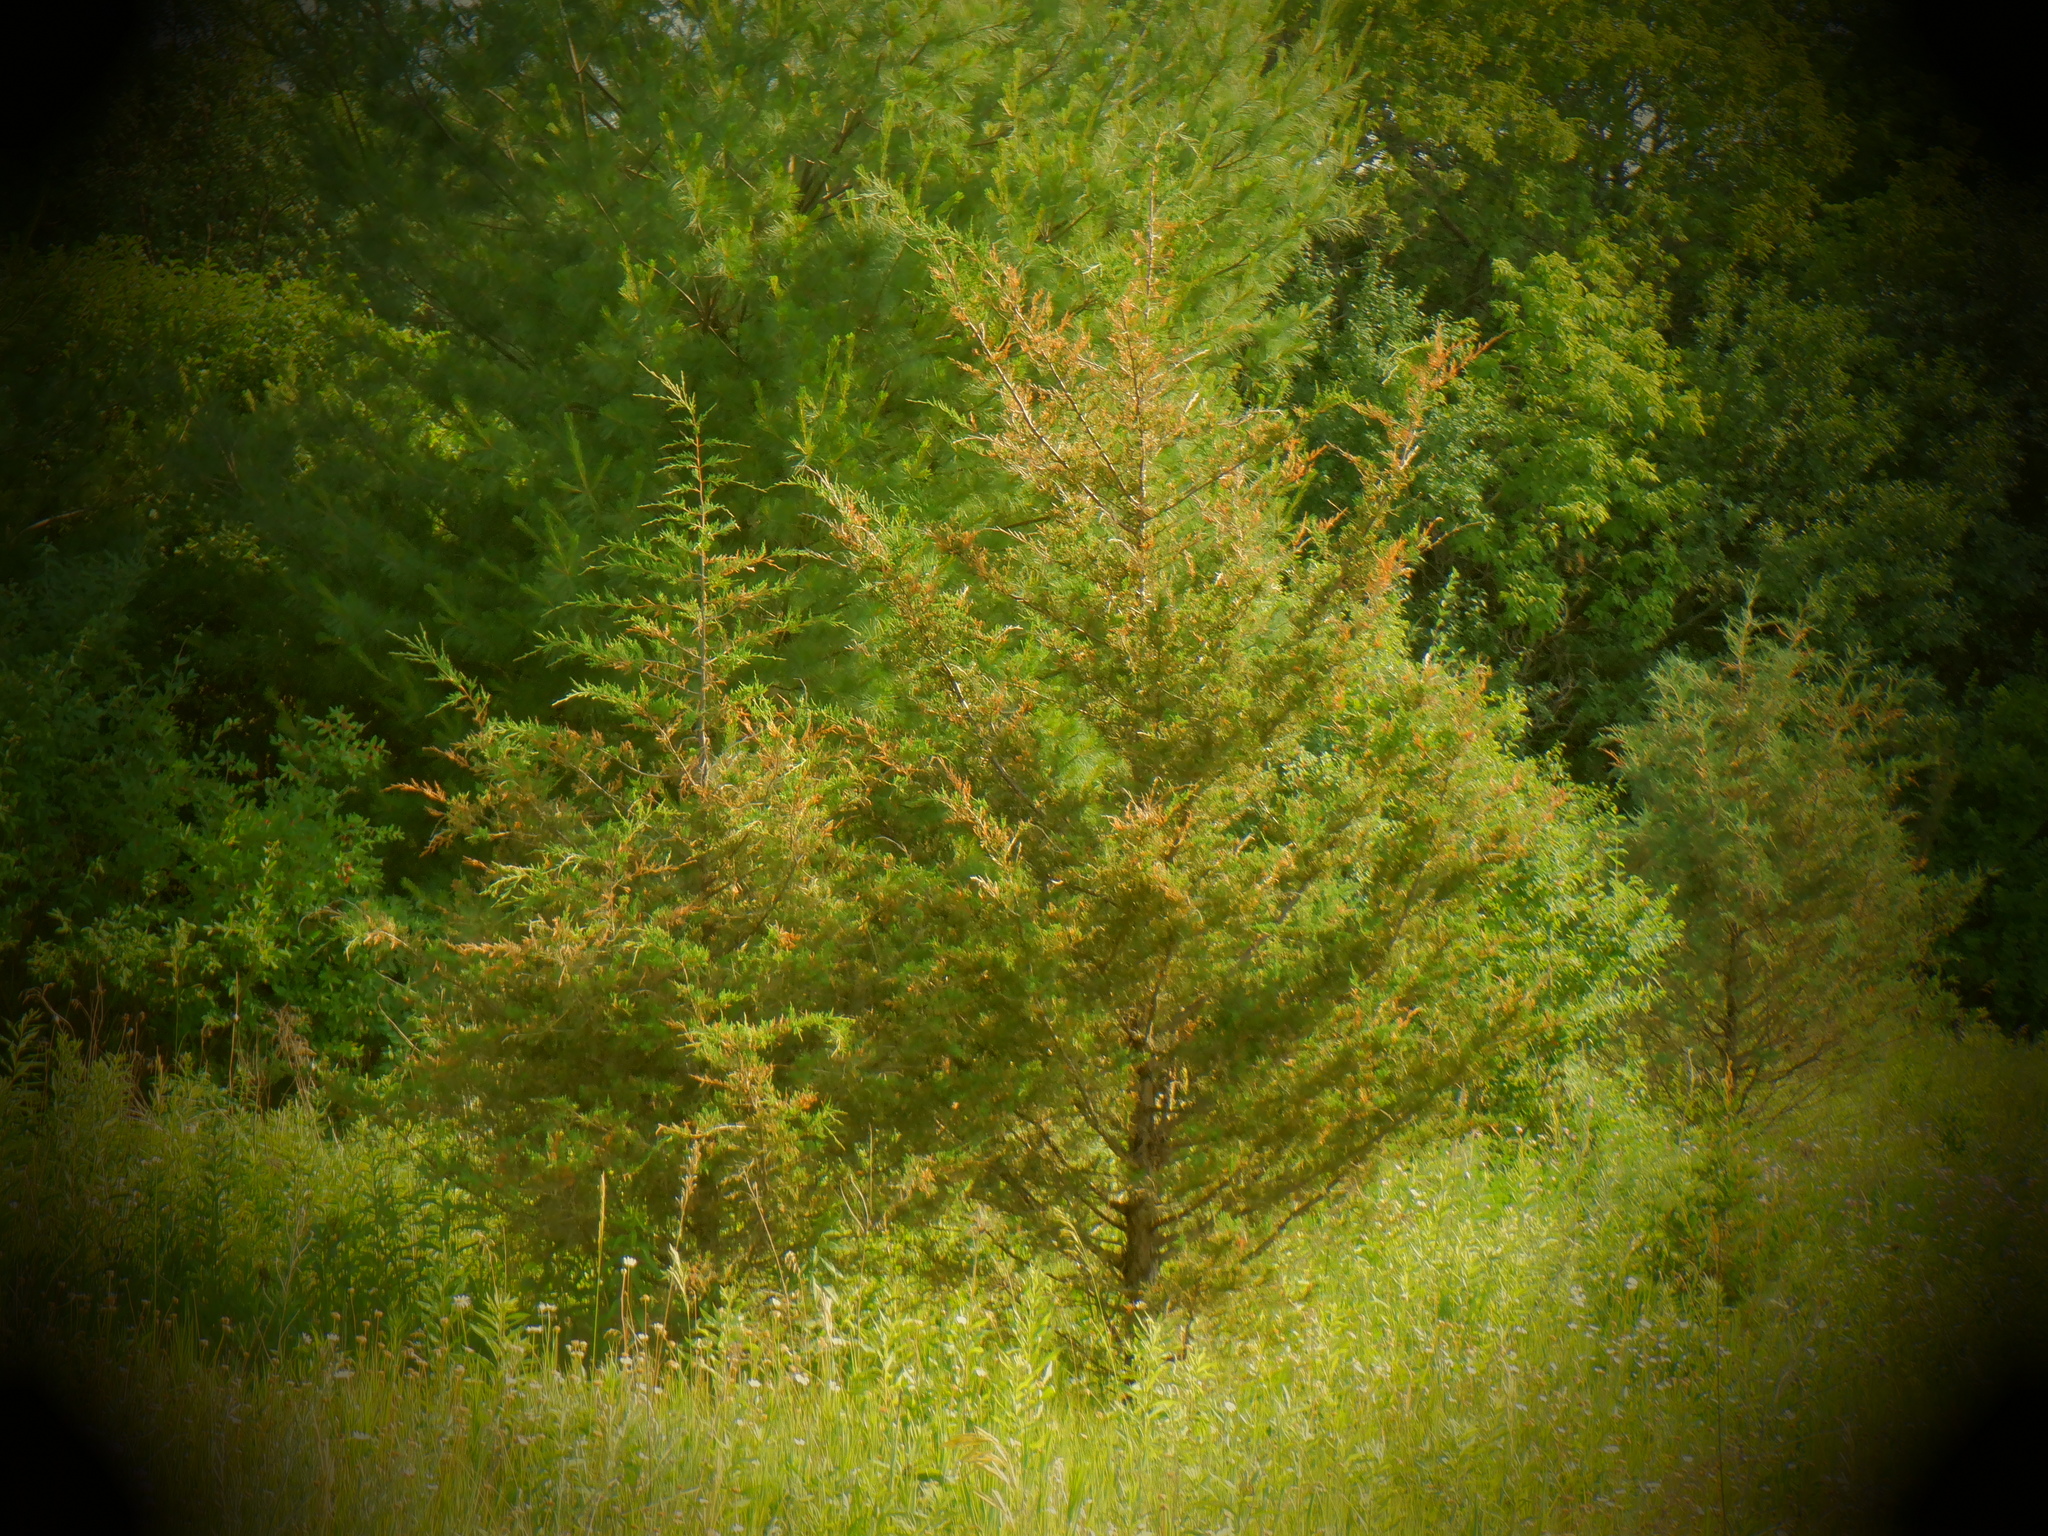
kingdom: Plantae
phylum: Tracheophyta
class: Pinopsida
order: Pinales
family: Cupressaceae
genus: Juniperus
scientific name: Juniperus virginiana
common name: Red juniper
